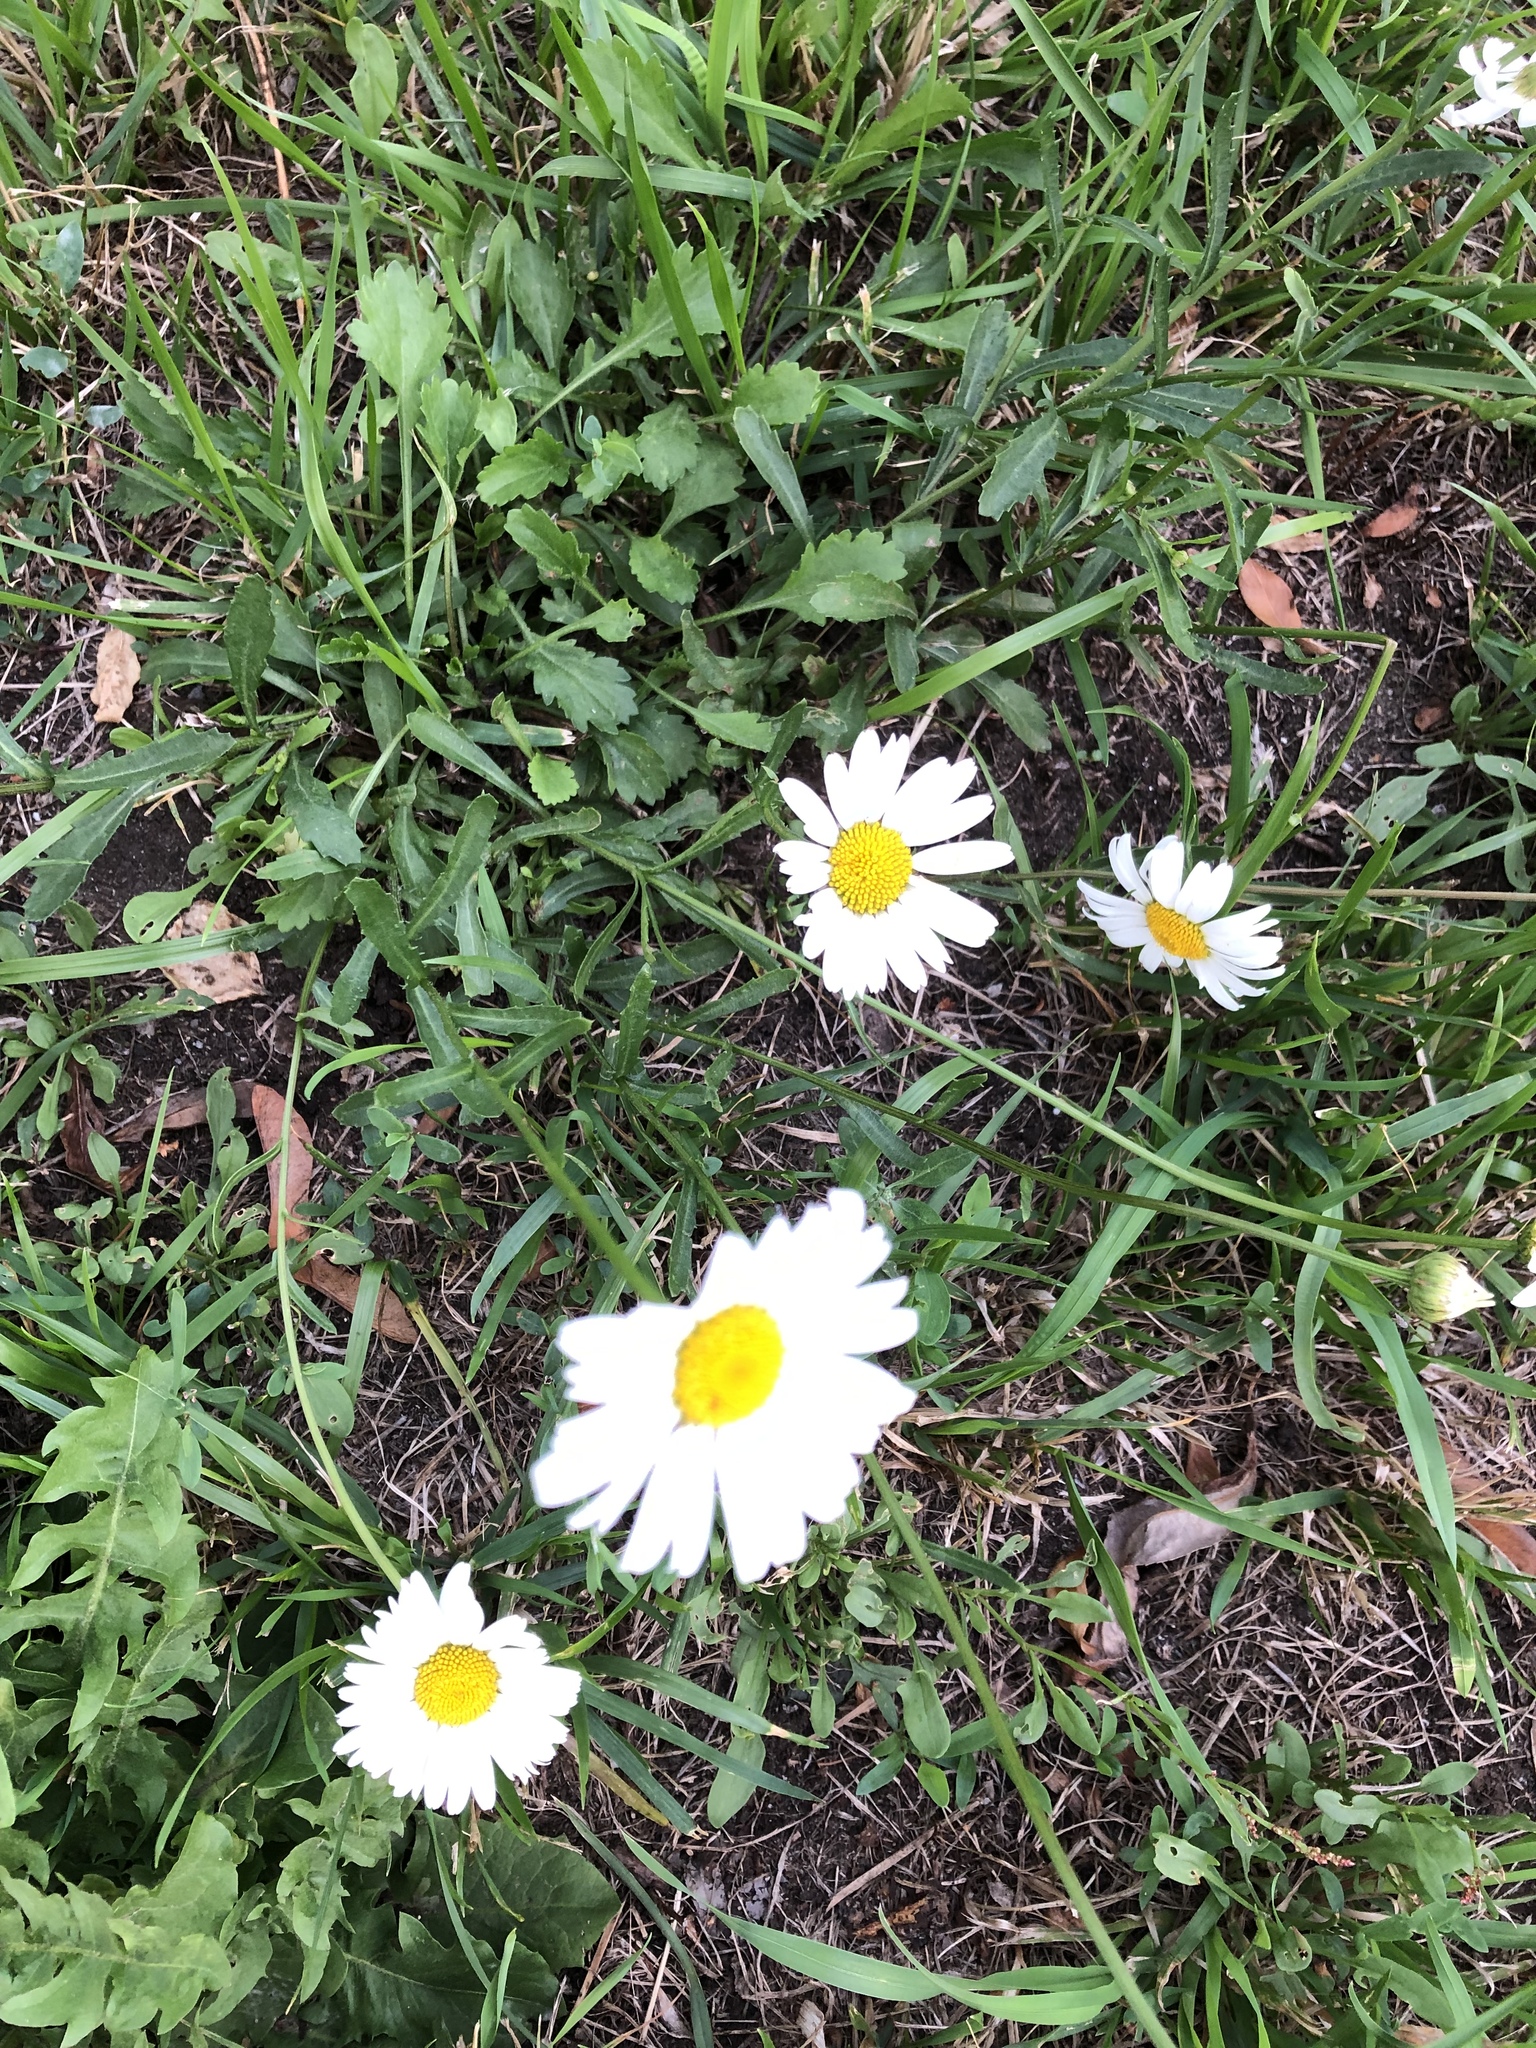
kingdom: Plantae
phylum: Tracheophyta
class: Magnoliopsida
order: Asterales
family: Asteraceae
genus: Leucanthemum
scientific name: Leucanthemum vulgare
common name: Oxeye daisy
